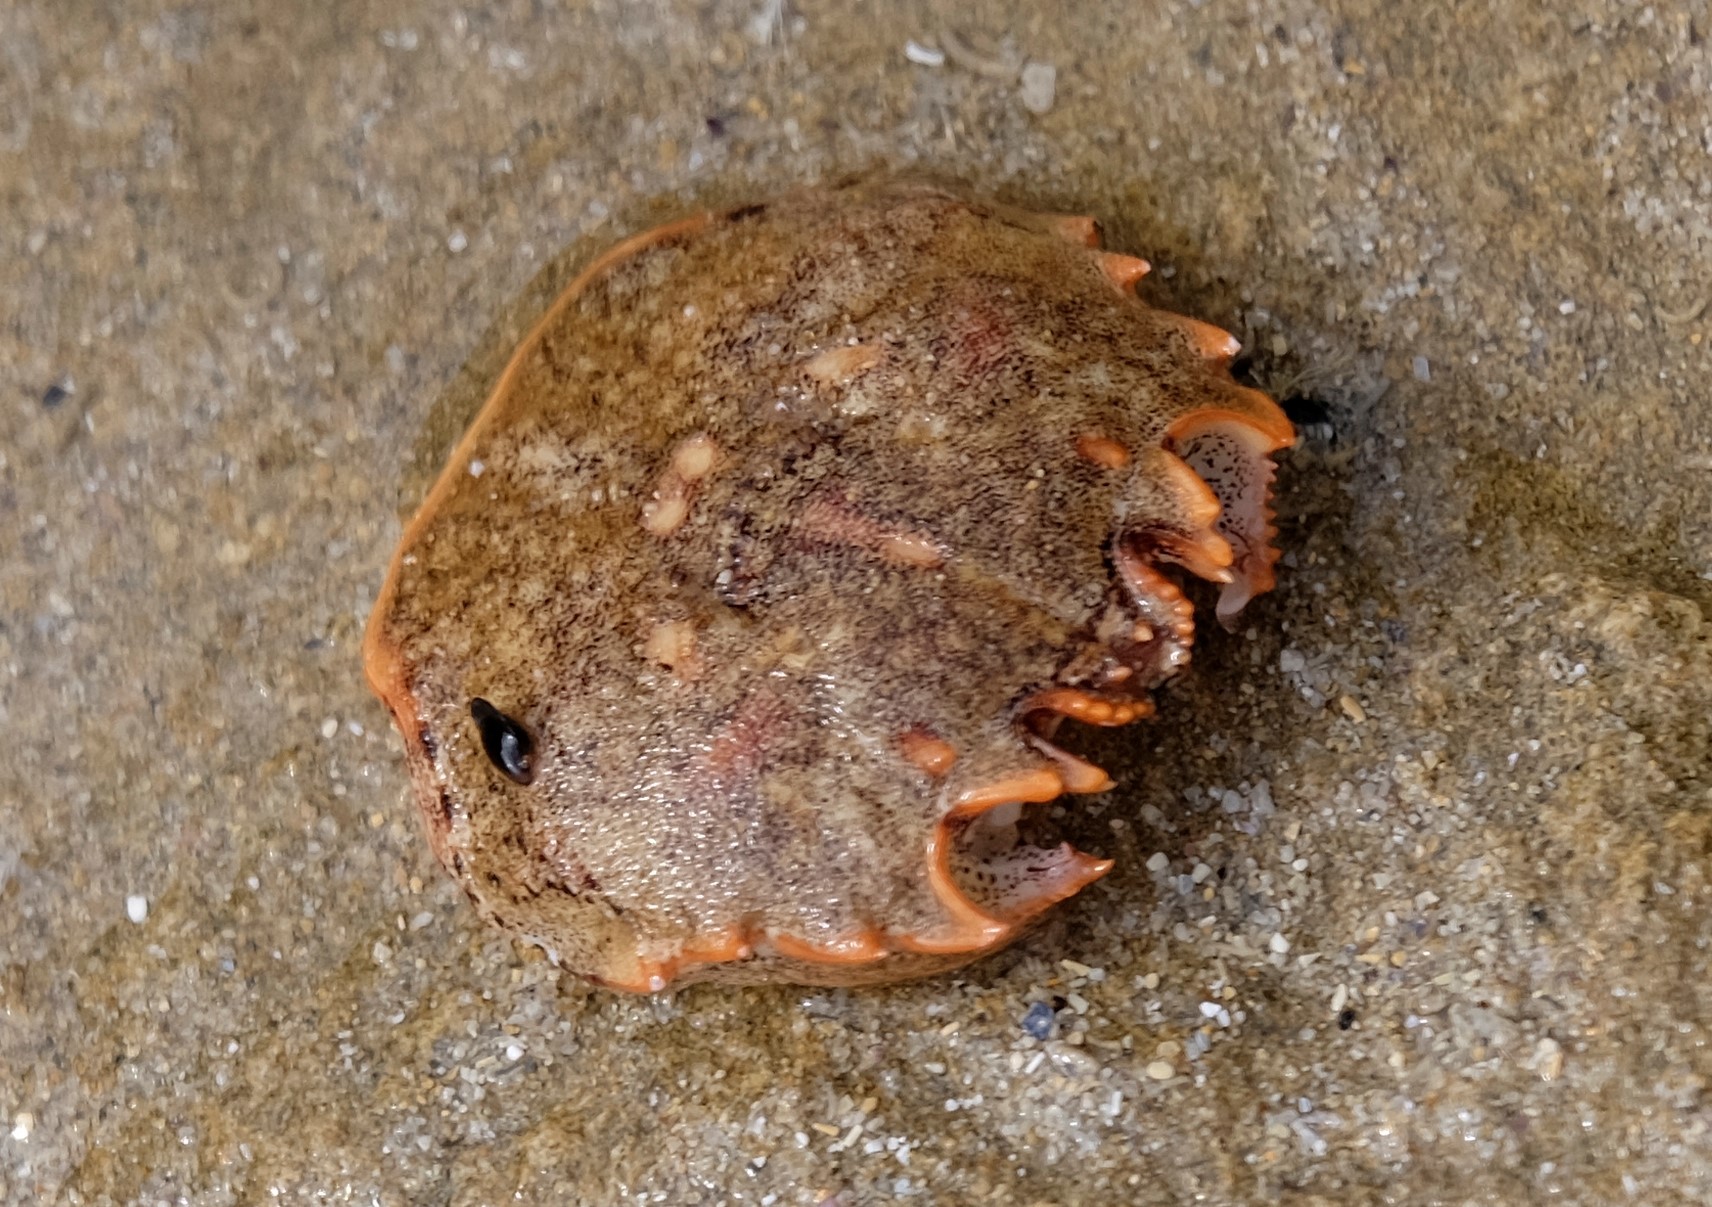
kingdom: Animalia
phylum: Arthropoda
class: Malacostraca
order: Decapoda
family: Plagusiidae
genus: Guinusia
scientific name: Guinusia chabrus
